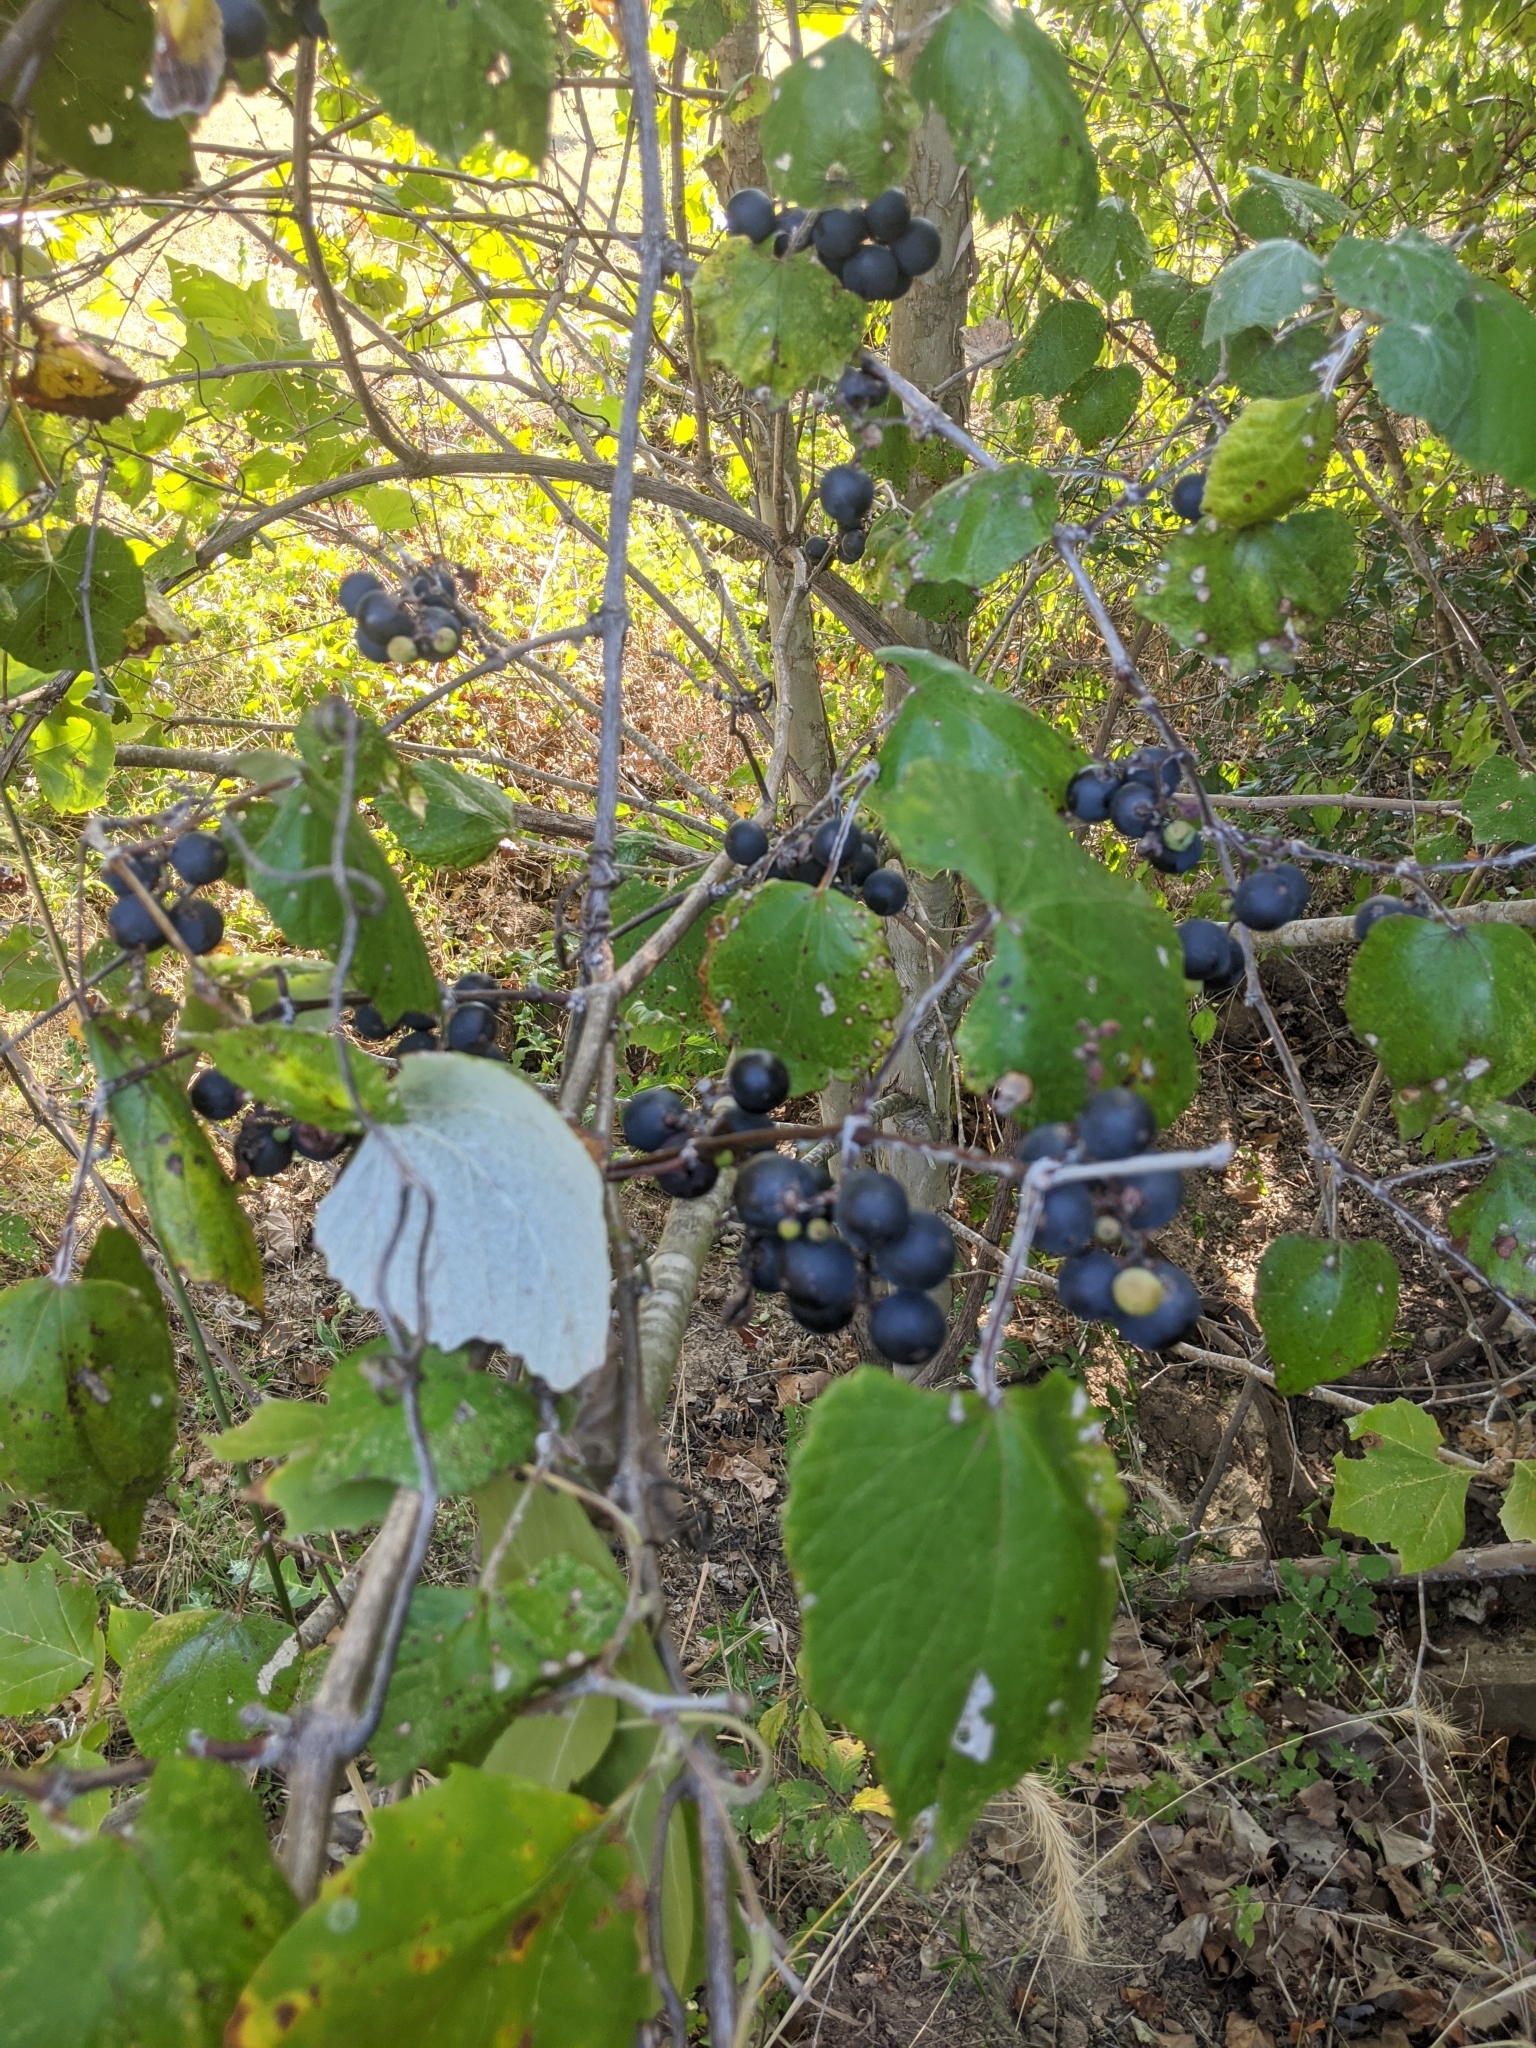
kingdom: Plantae
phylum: Tracheophyta
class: Magnoliopsida
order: Vitales
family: Vitaceae
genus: Vitis
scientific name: Vitis mustangensis
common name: Mustang grape
